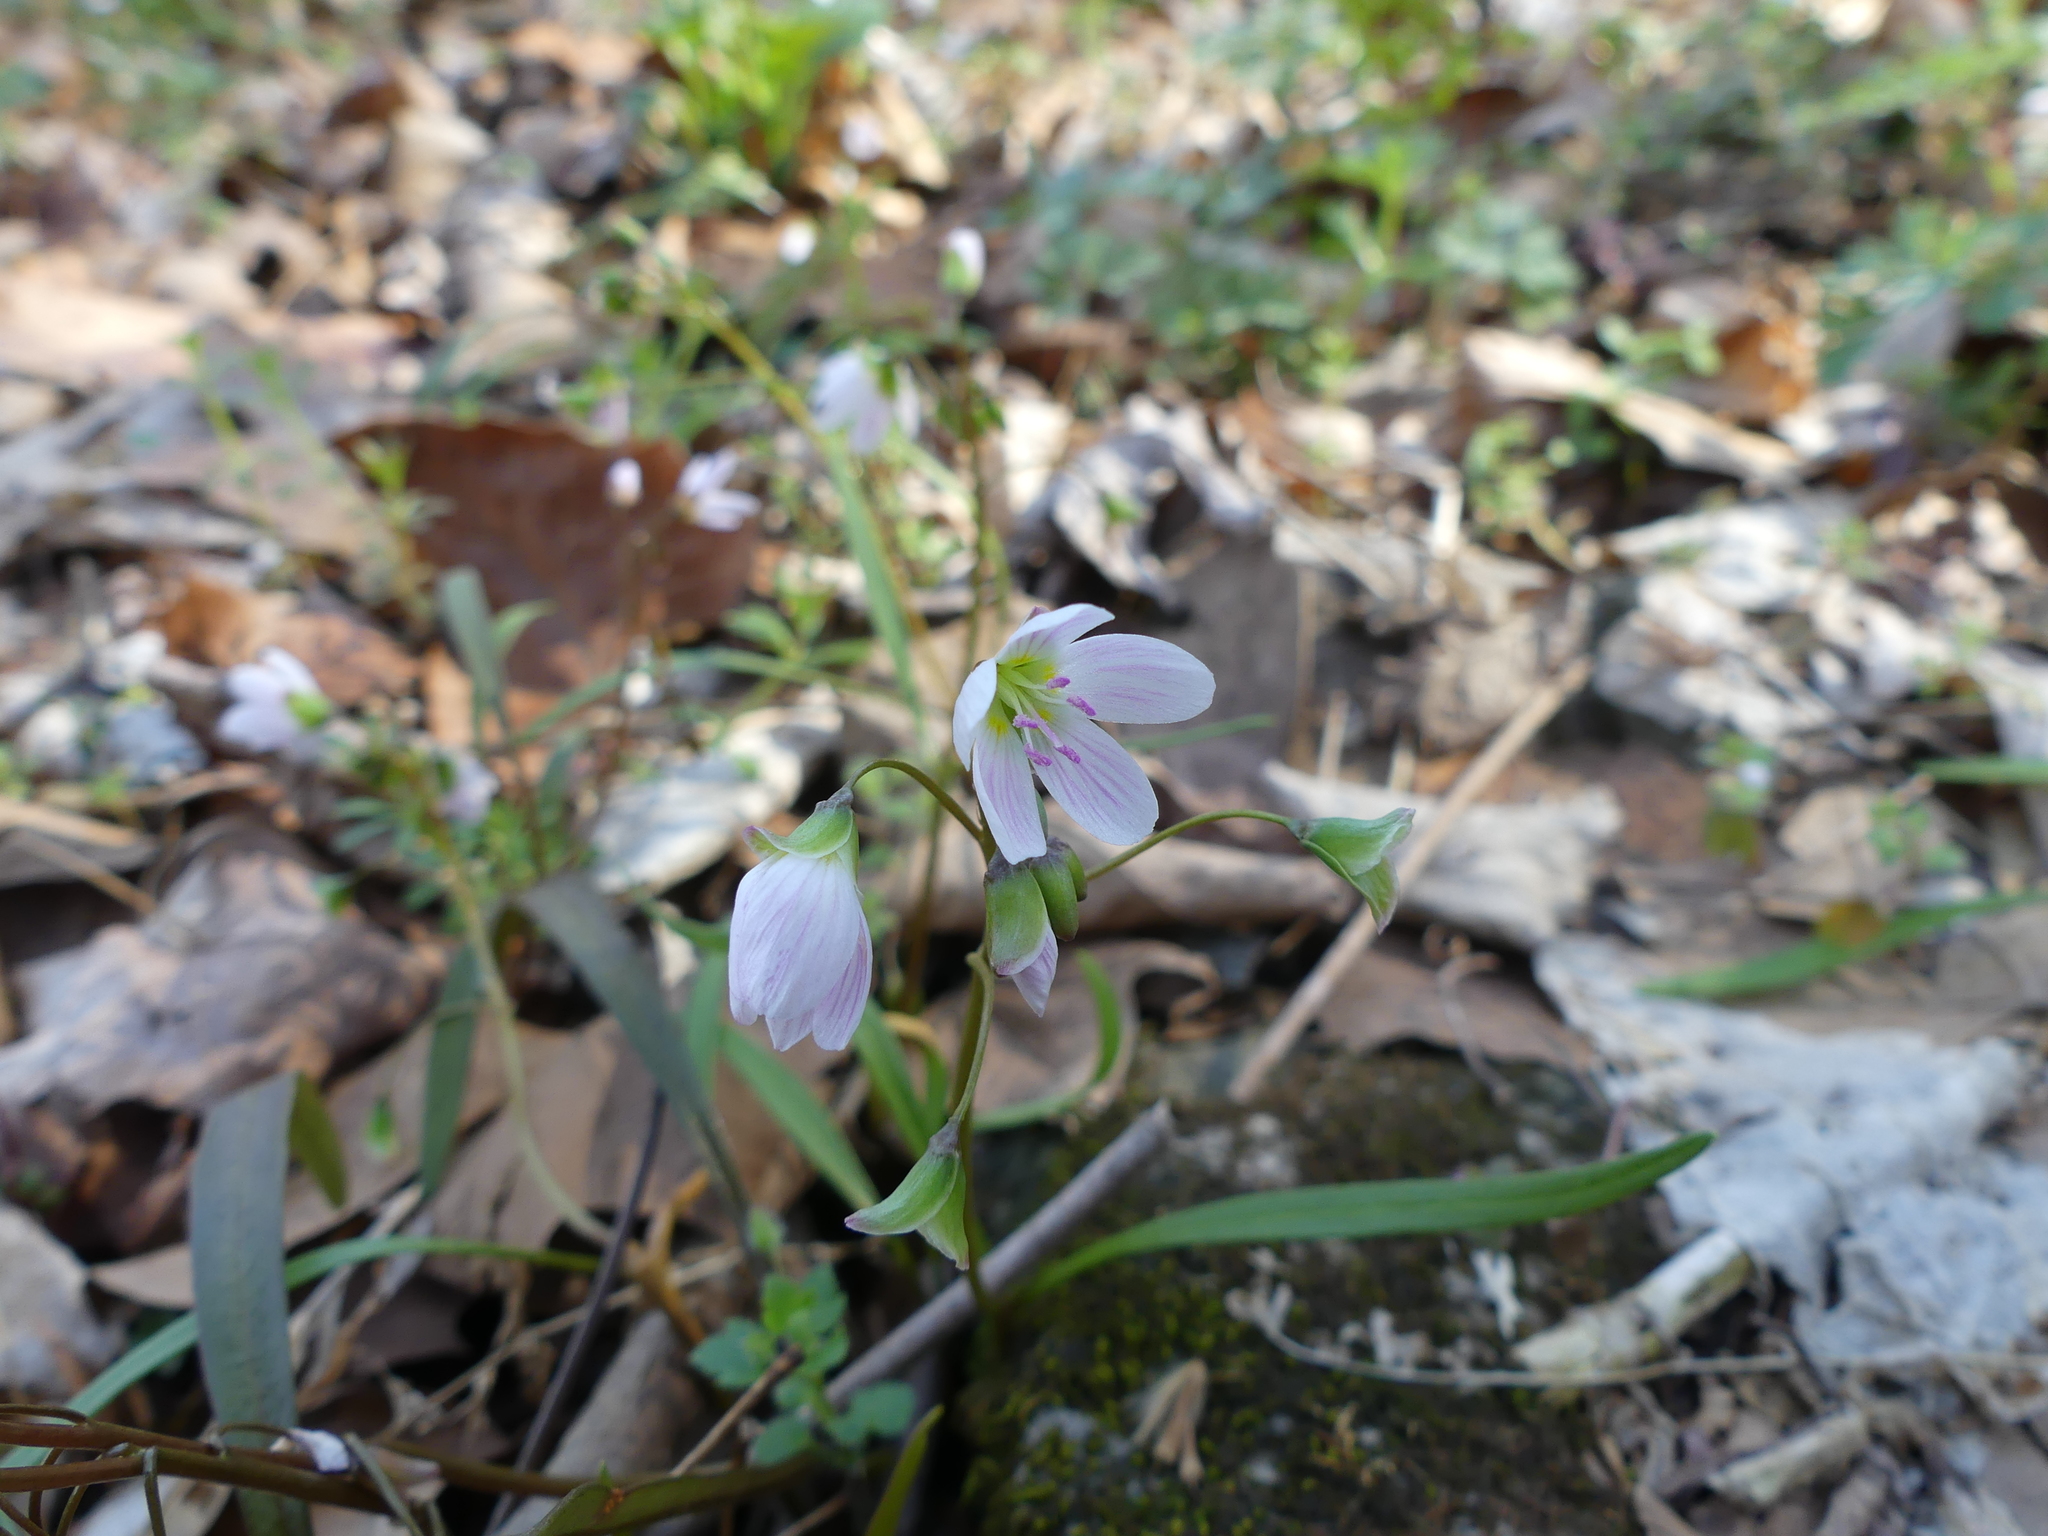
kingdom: Plantae
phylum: Tracheophyta
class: Magnoliopsida
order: Caryophyllales
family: Montiaceae
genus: Claytonia
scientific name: Claytonia virginica
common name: Virginia springbeauty
